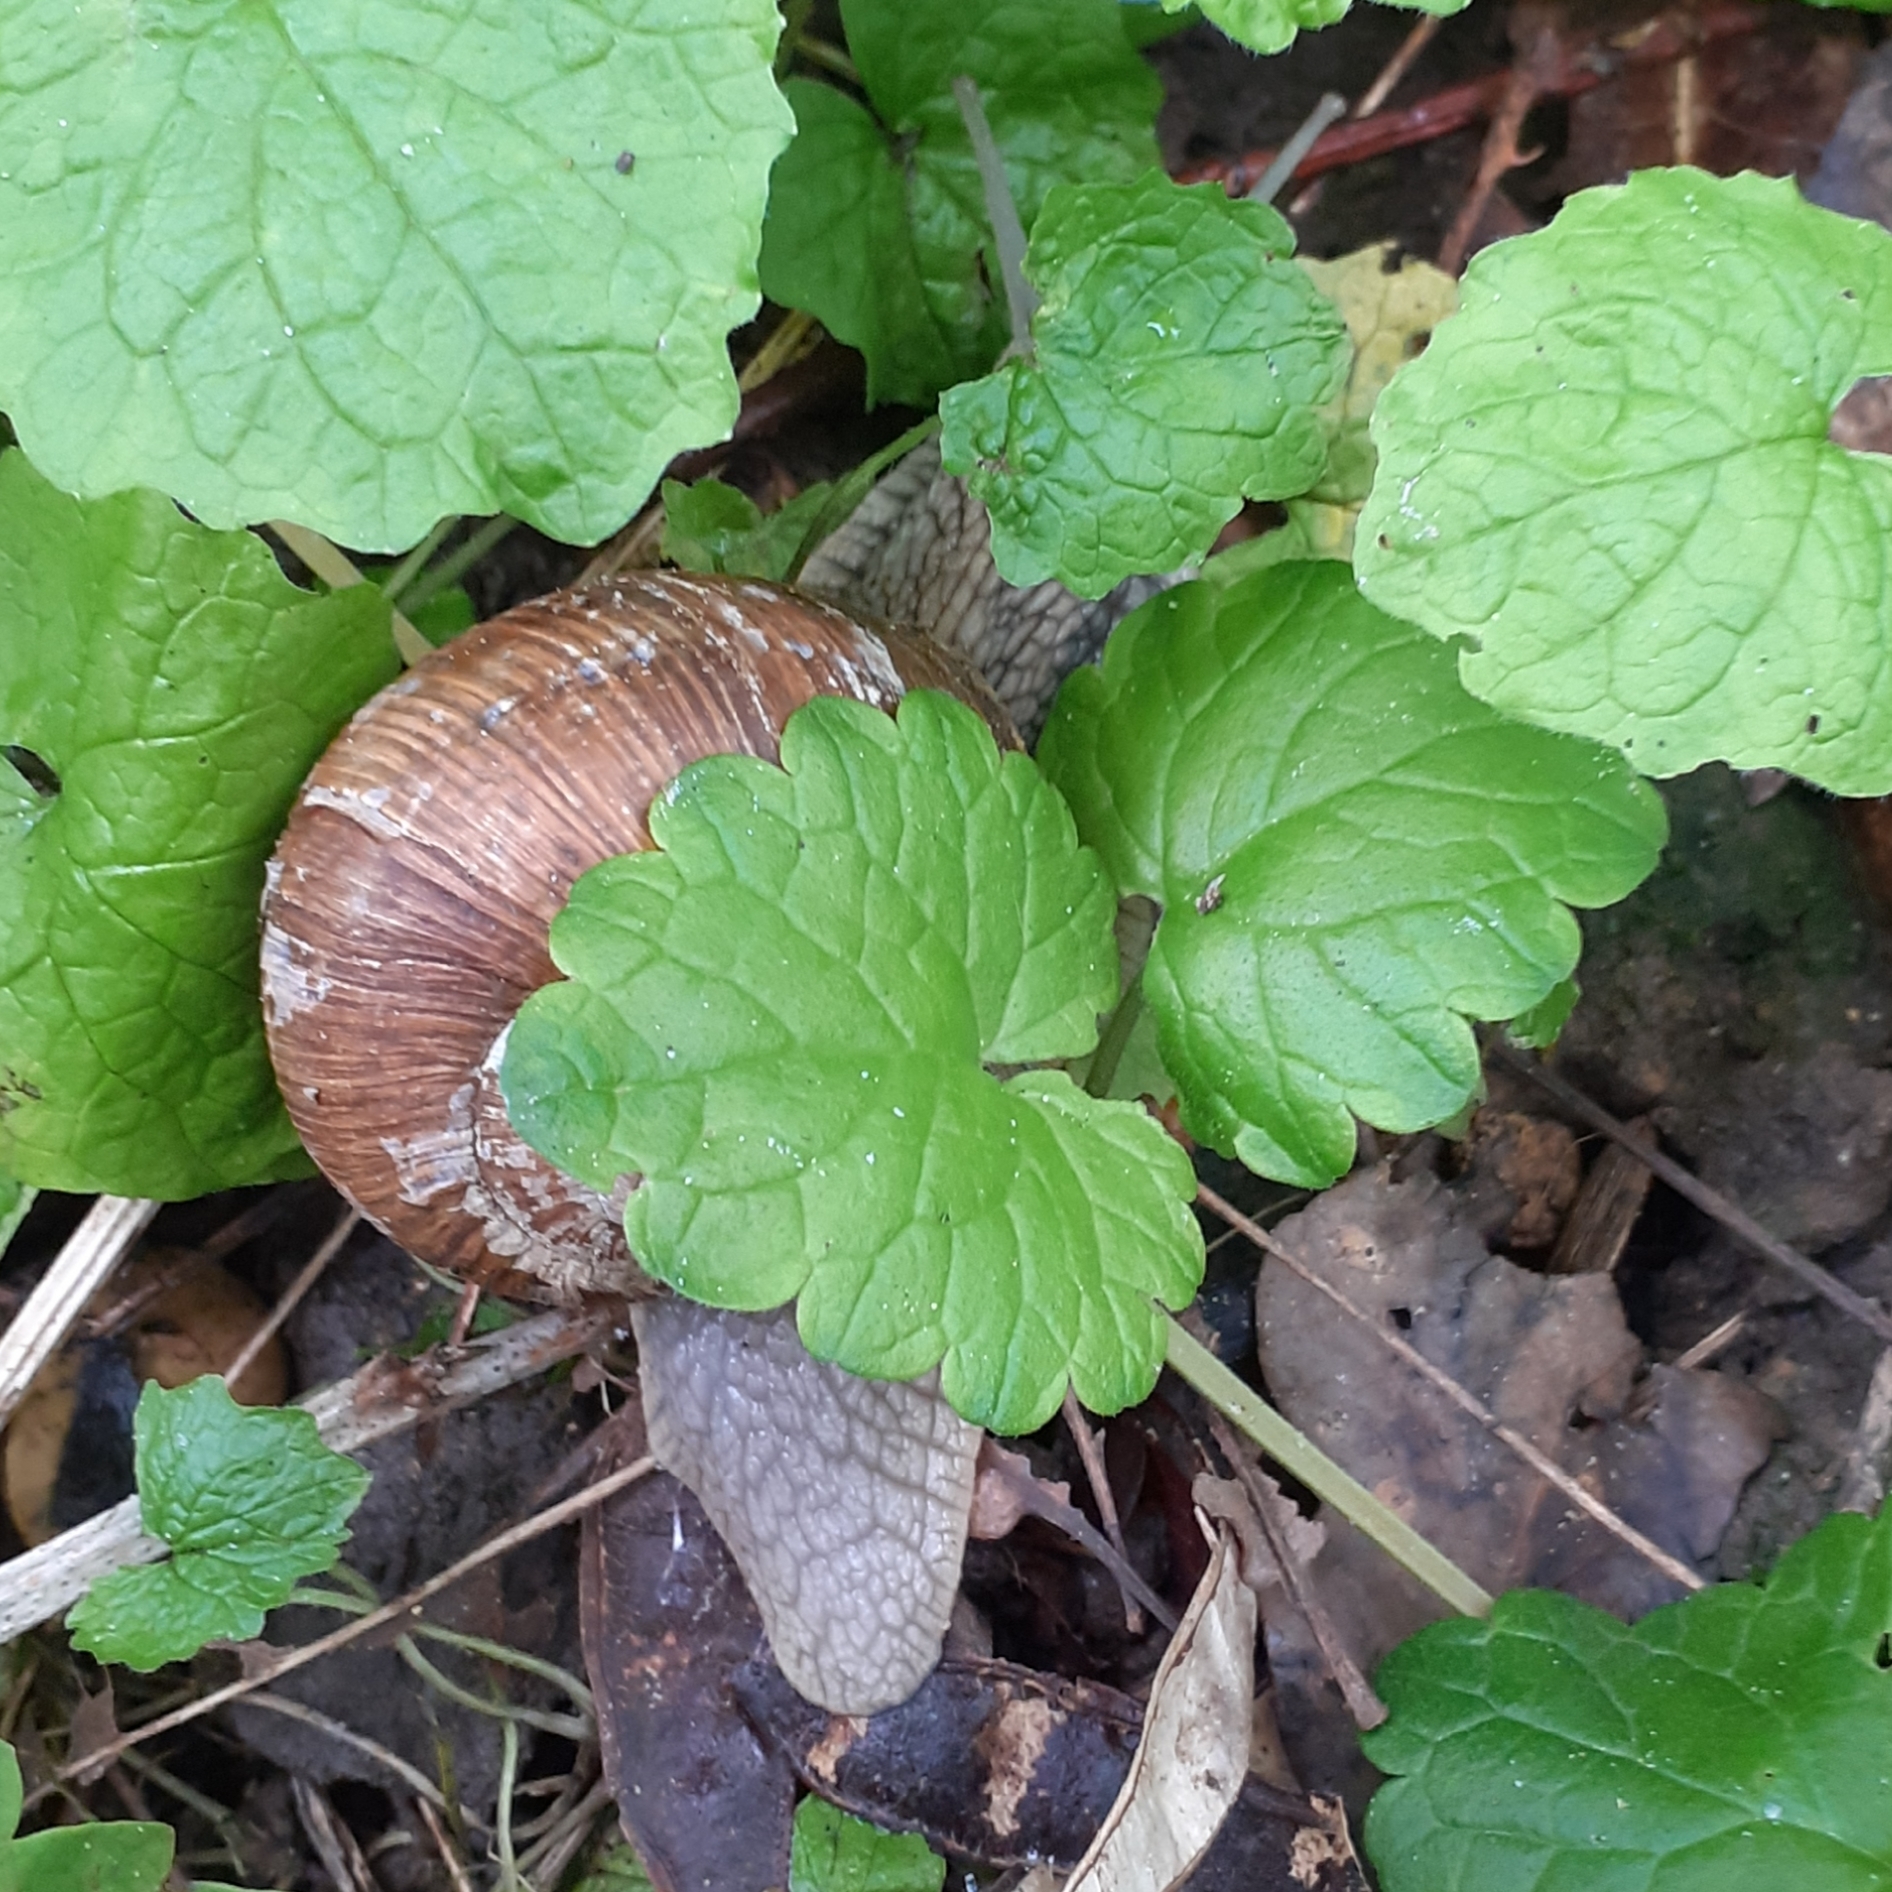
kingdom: Animalia
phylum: Mollusca
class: Gastropoda
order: Stylommatophora
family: Helicidae
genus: Helix
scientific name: Helix pomatia
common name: Roman snail
